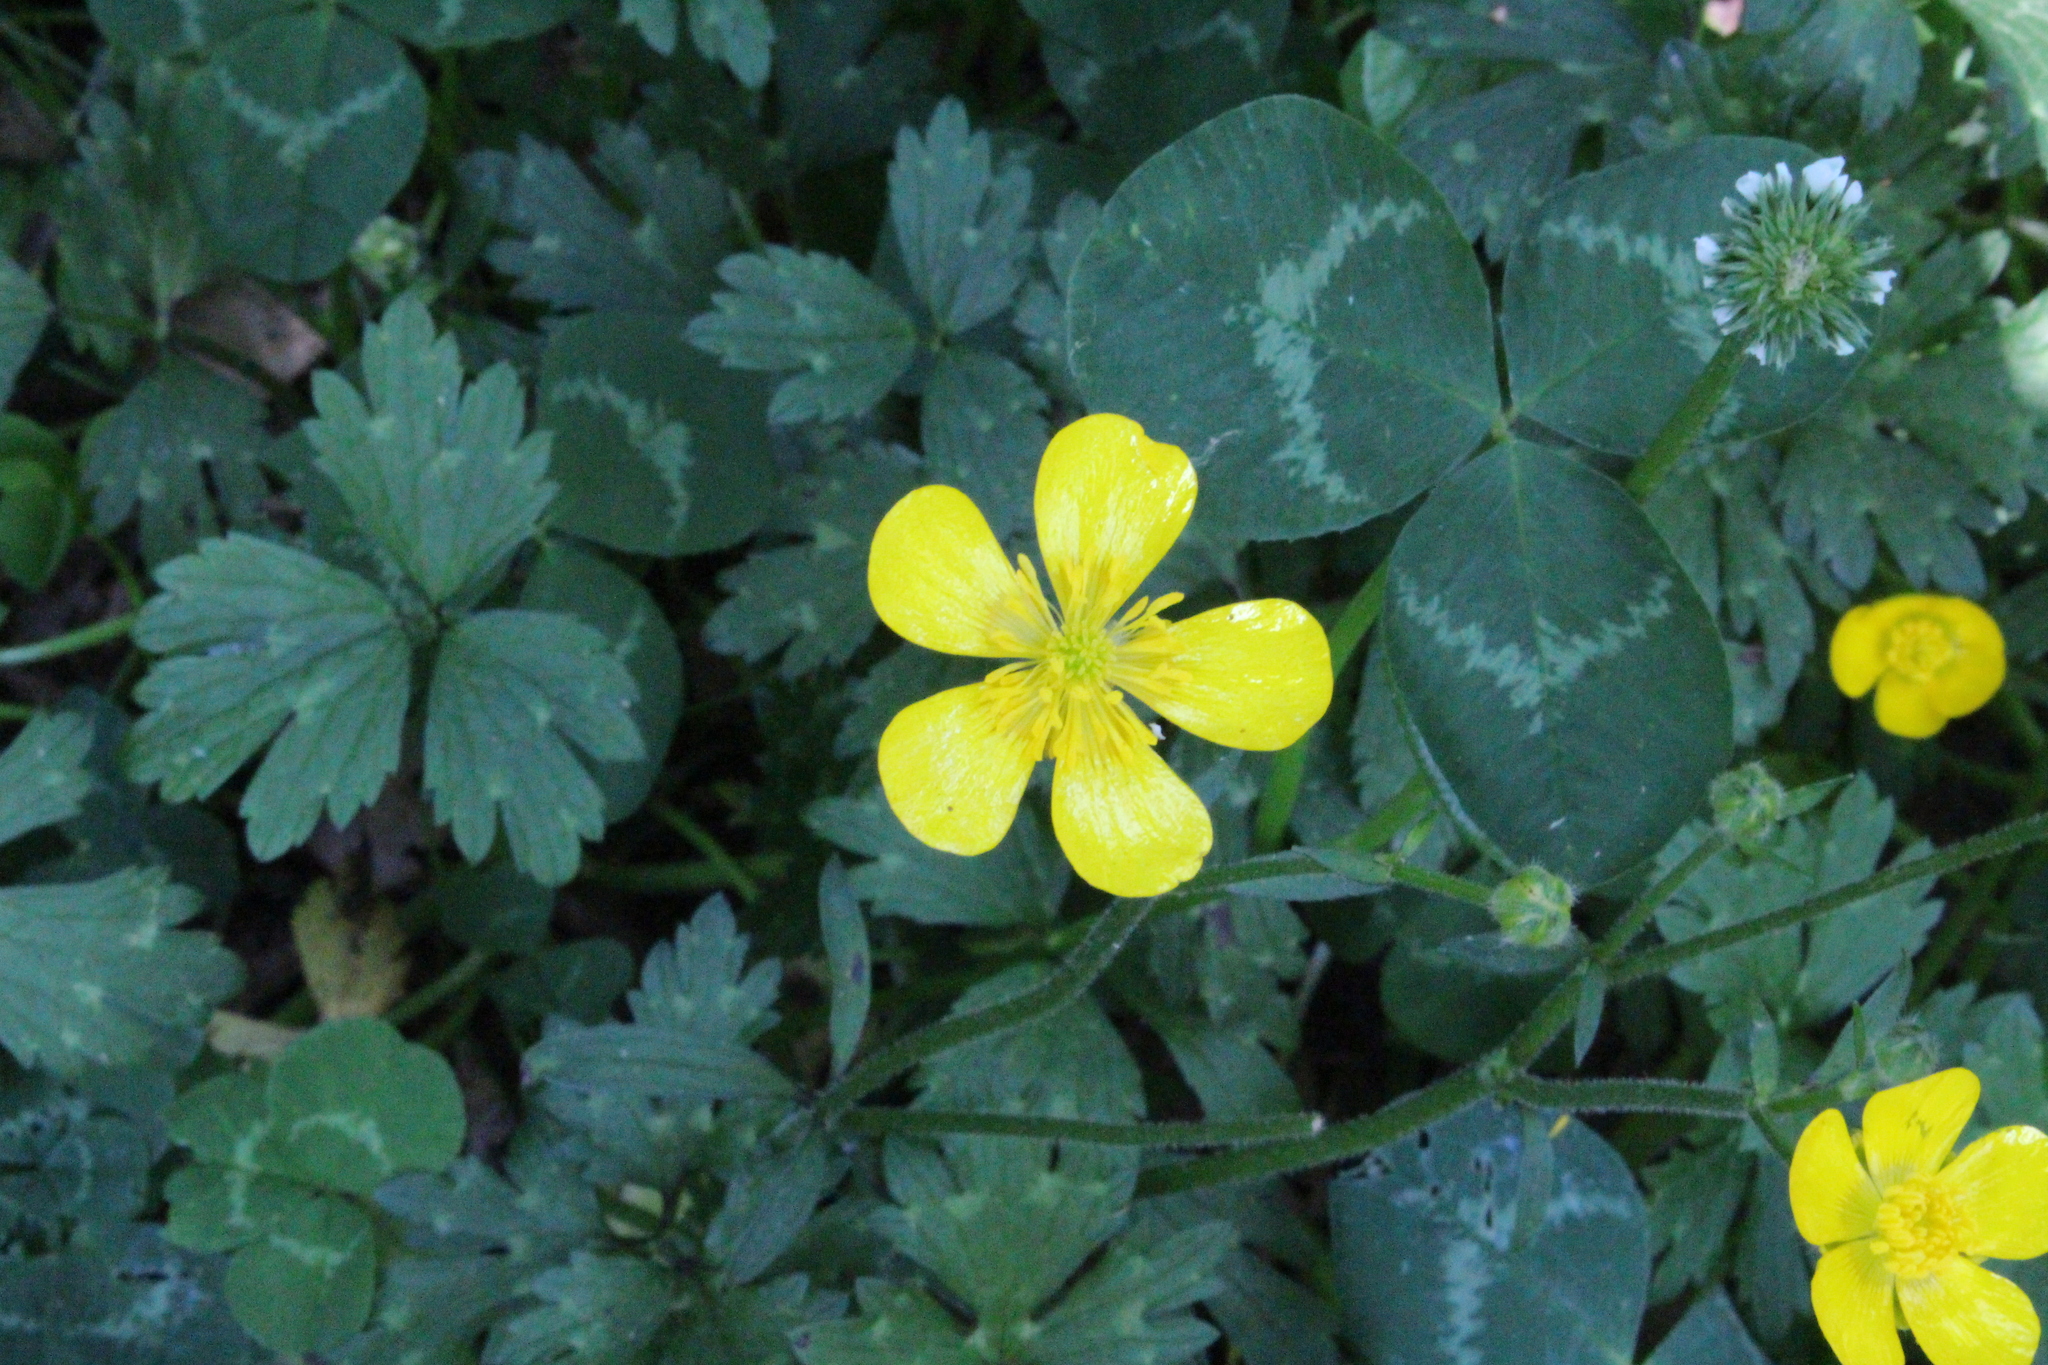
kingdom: Plantae
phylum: Tracheophyta
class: Magnoliopsida
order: Ranunculales
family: Ranunculaceae
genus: Ranunculus
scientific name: Ranunculus repens
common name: Creeping buttercup
